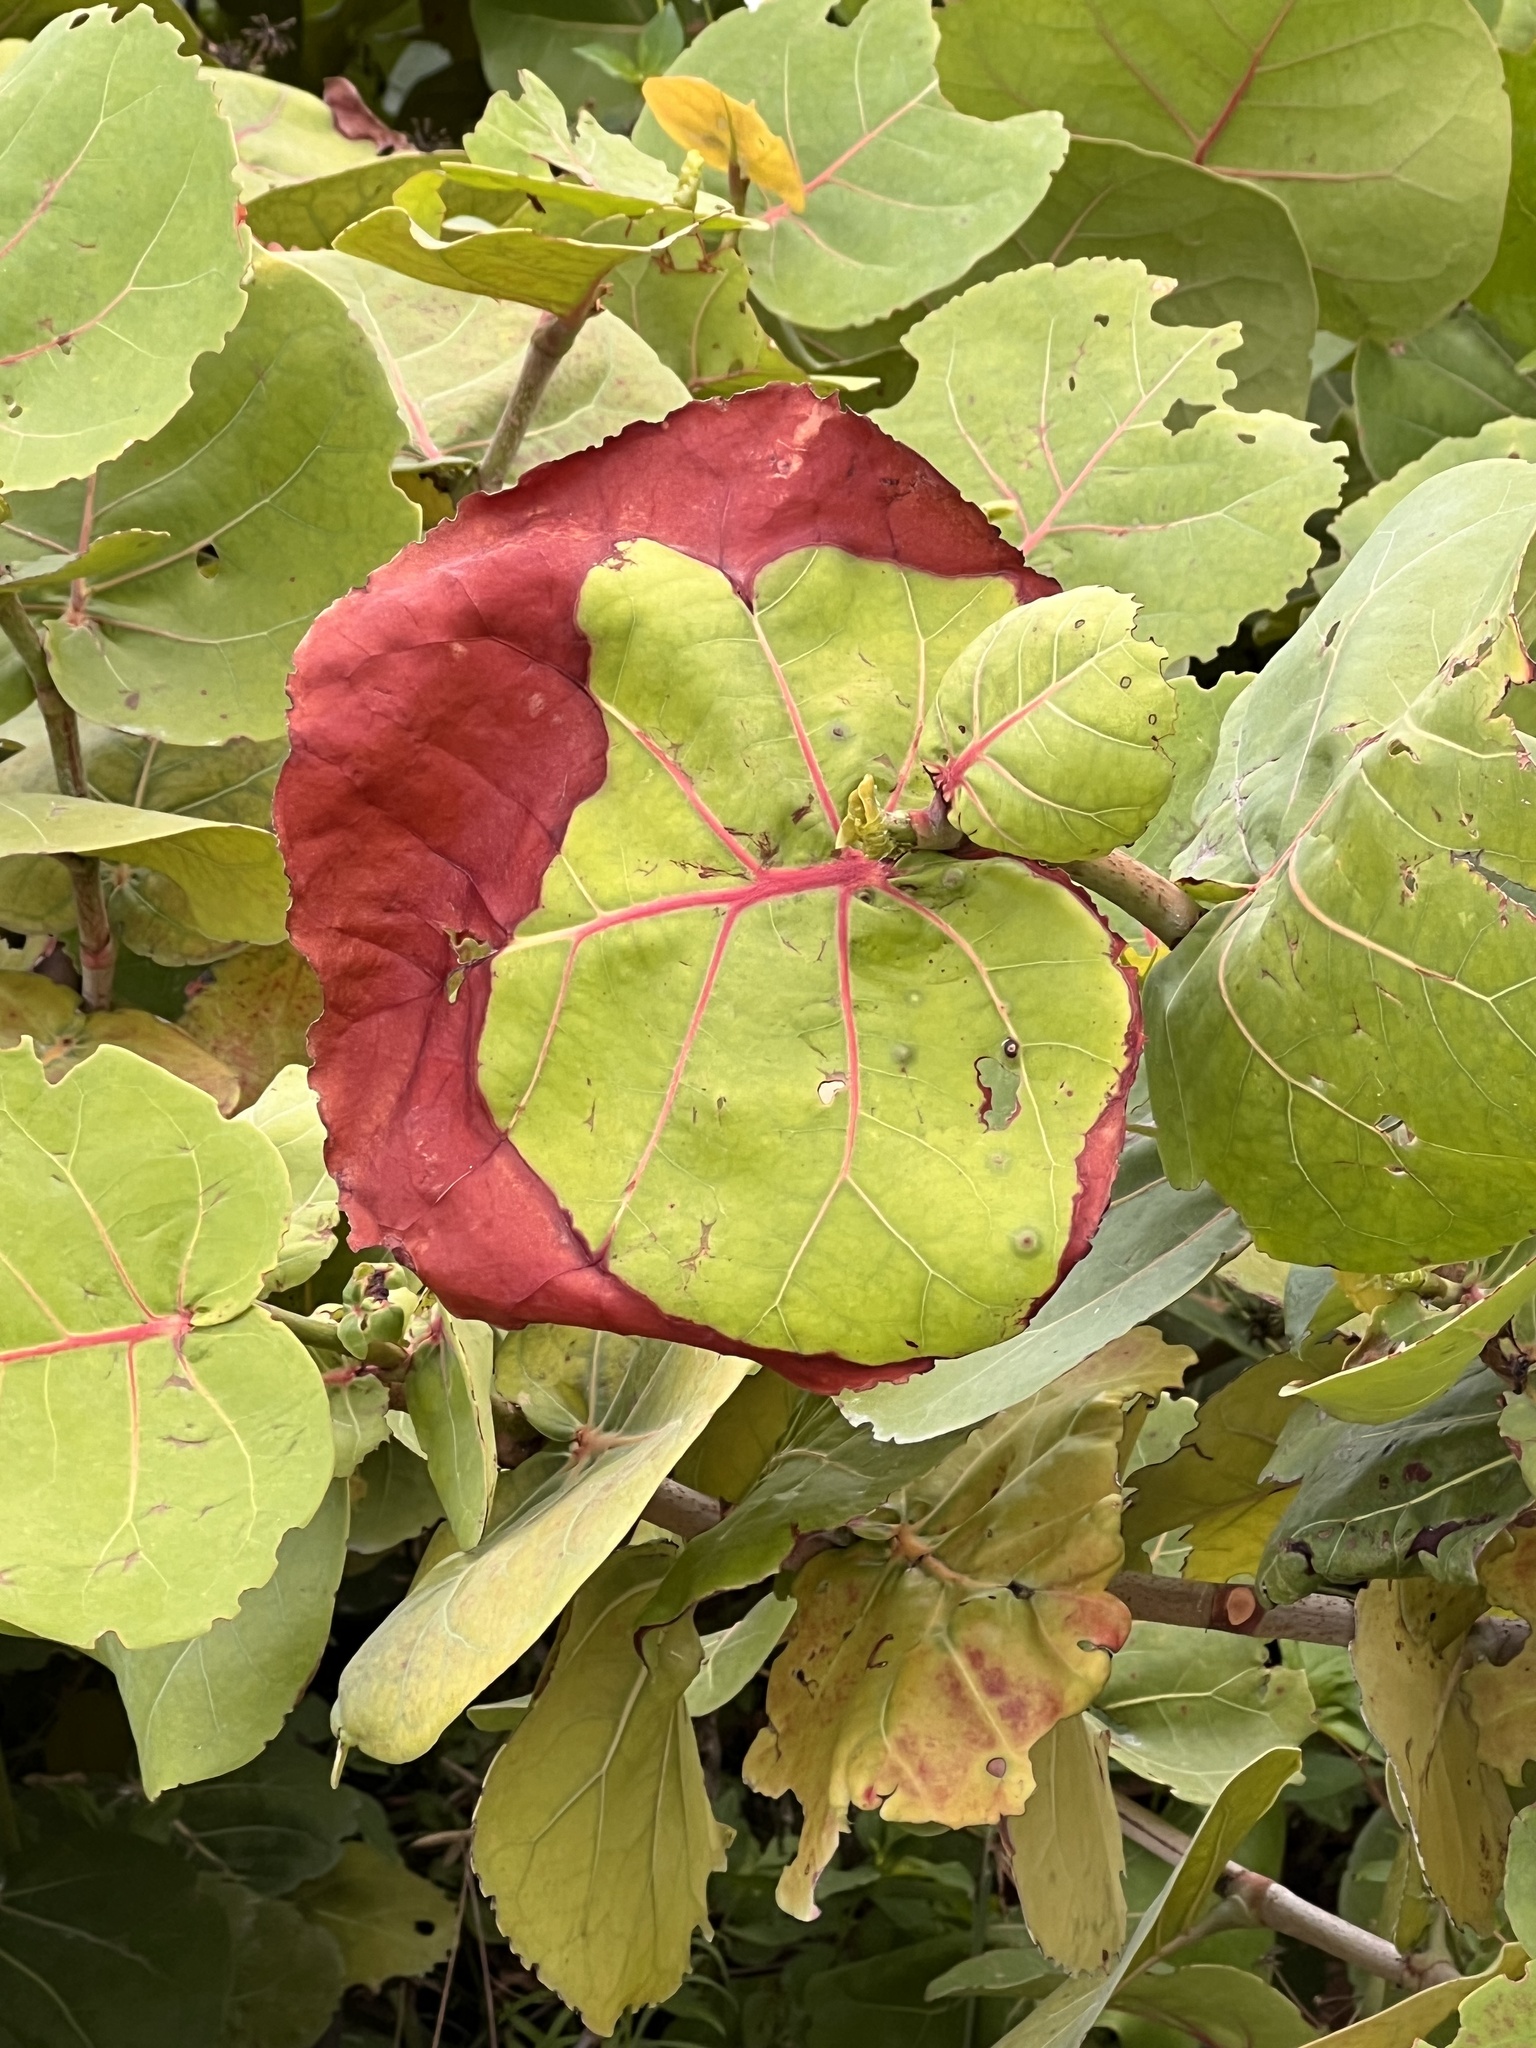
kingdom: Plantae
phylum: Tracheophyta
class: Magnoliopsida
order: Caryophyllales
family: Polygonaceae
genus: Coccoloba
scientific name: Coccoloba uvifera
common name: Seagrape
